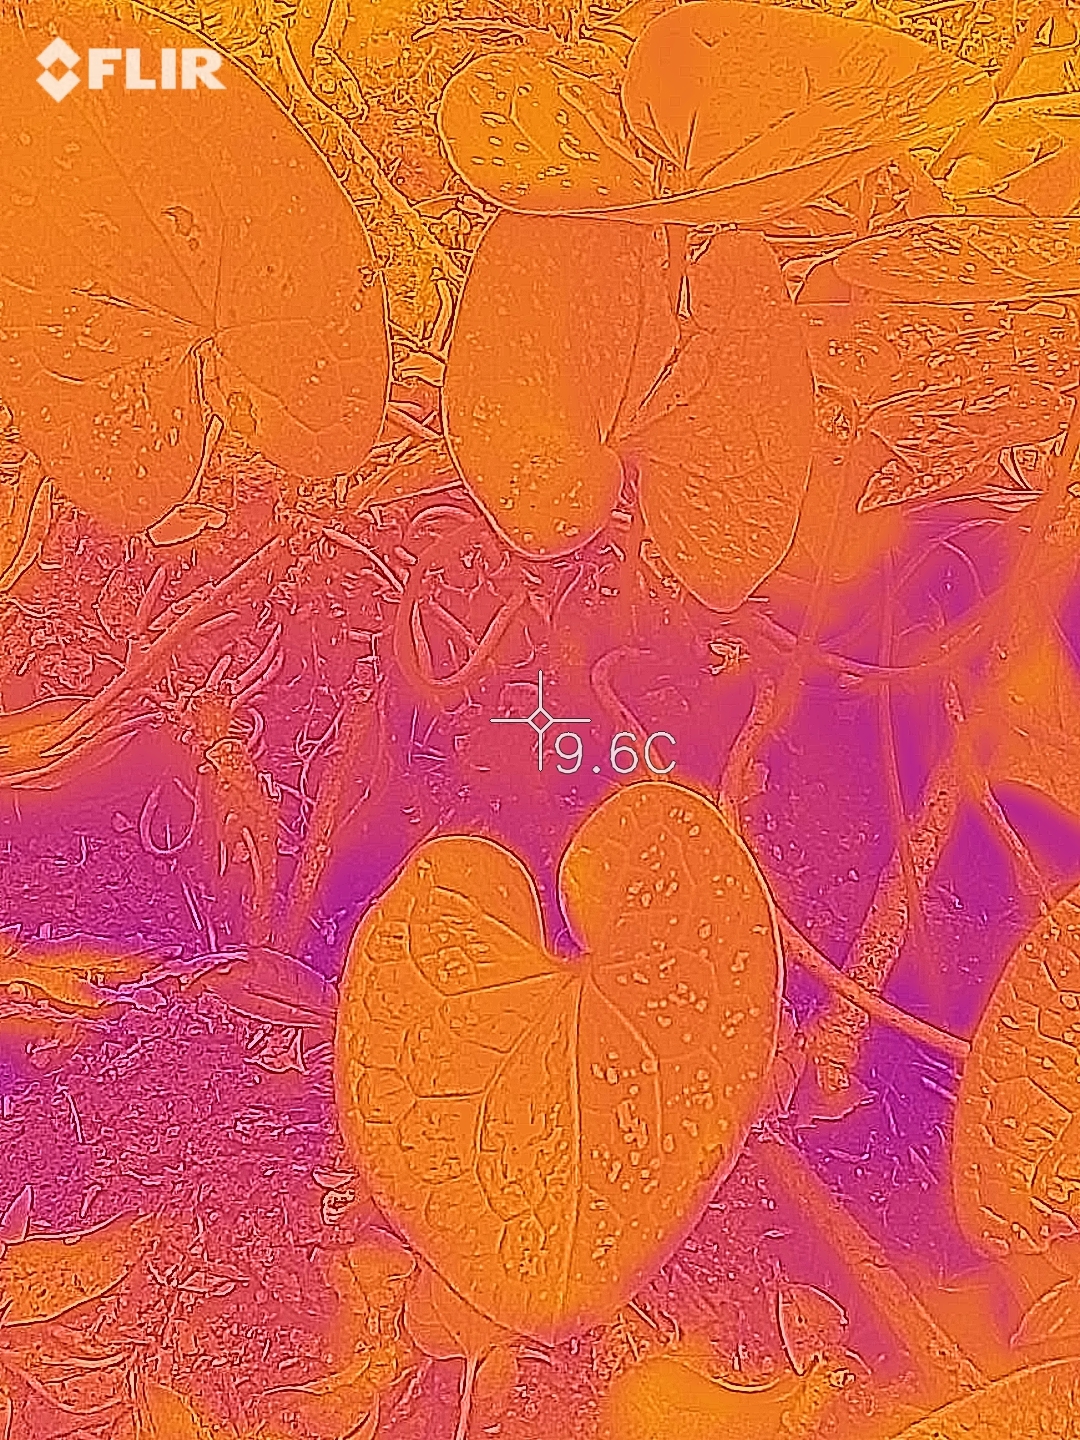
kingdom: Plantae
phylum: Tracheophyta
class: Magnoliopsida
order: Piperales
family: Aristolochiaceae
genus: Asarum
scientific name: Asarum tokarense
